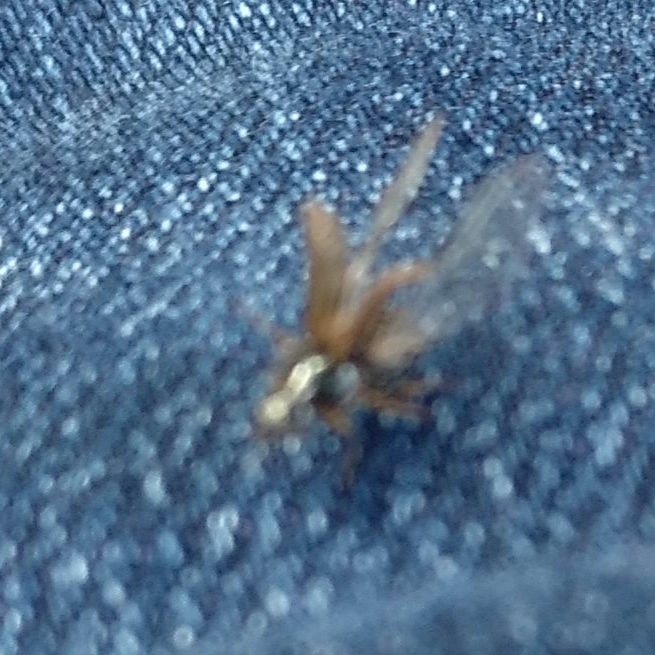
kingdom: Animalia
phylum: Arthropoda
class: Insecta
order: Coleoptera
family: Scarabaeidae
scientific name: Scarabaeidae
